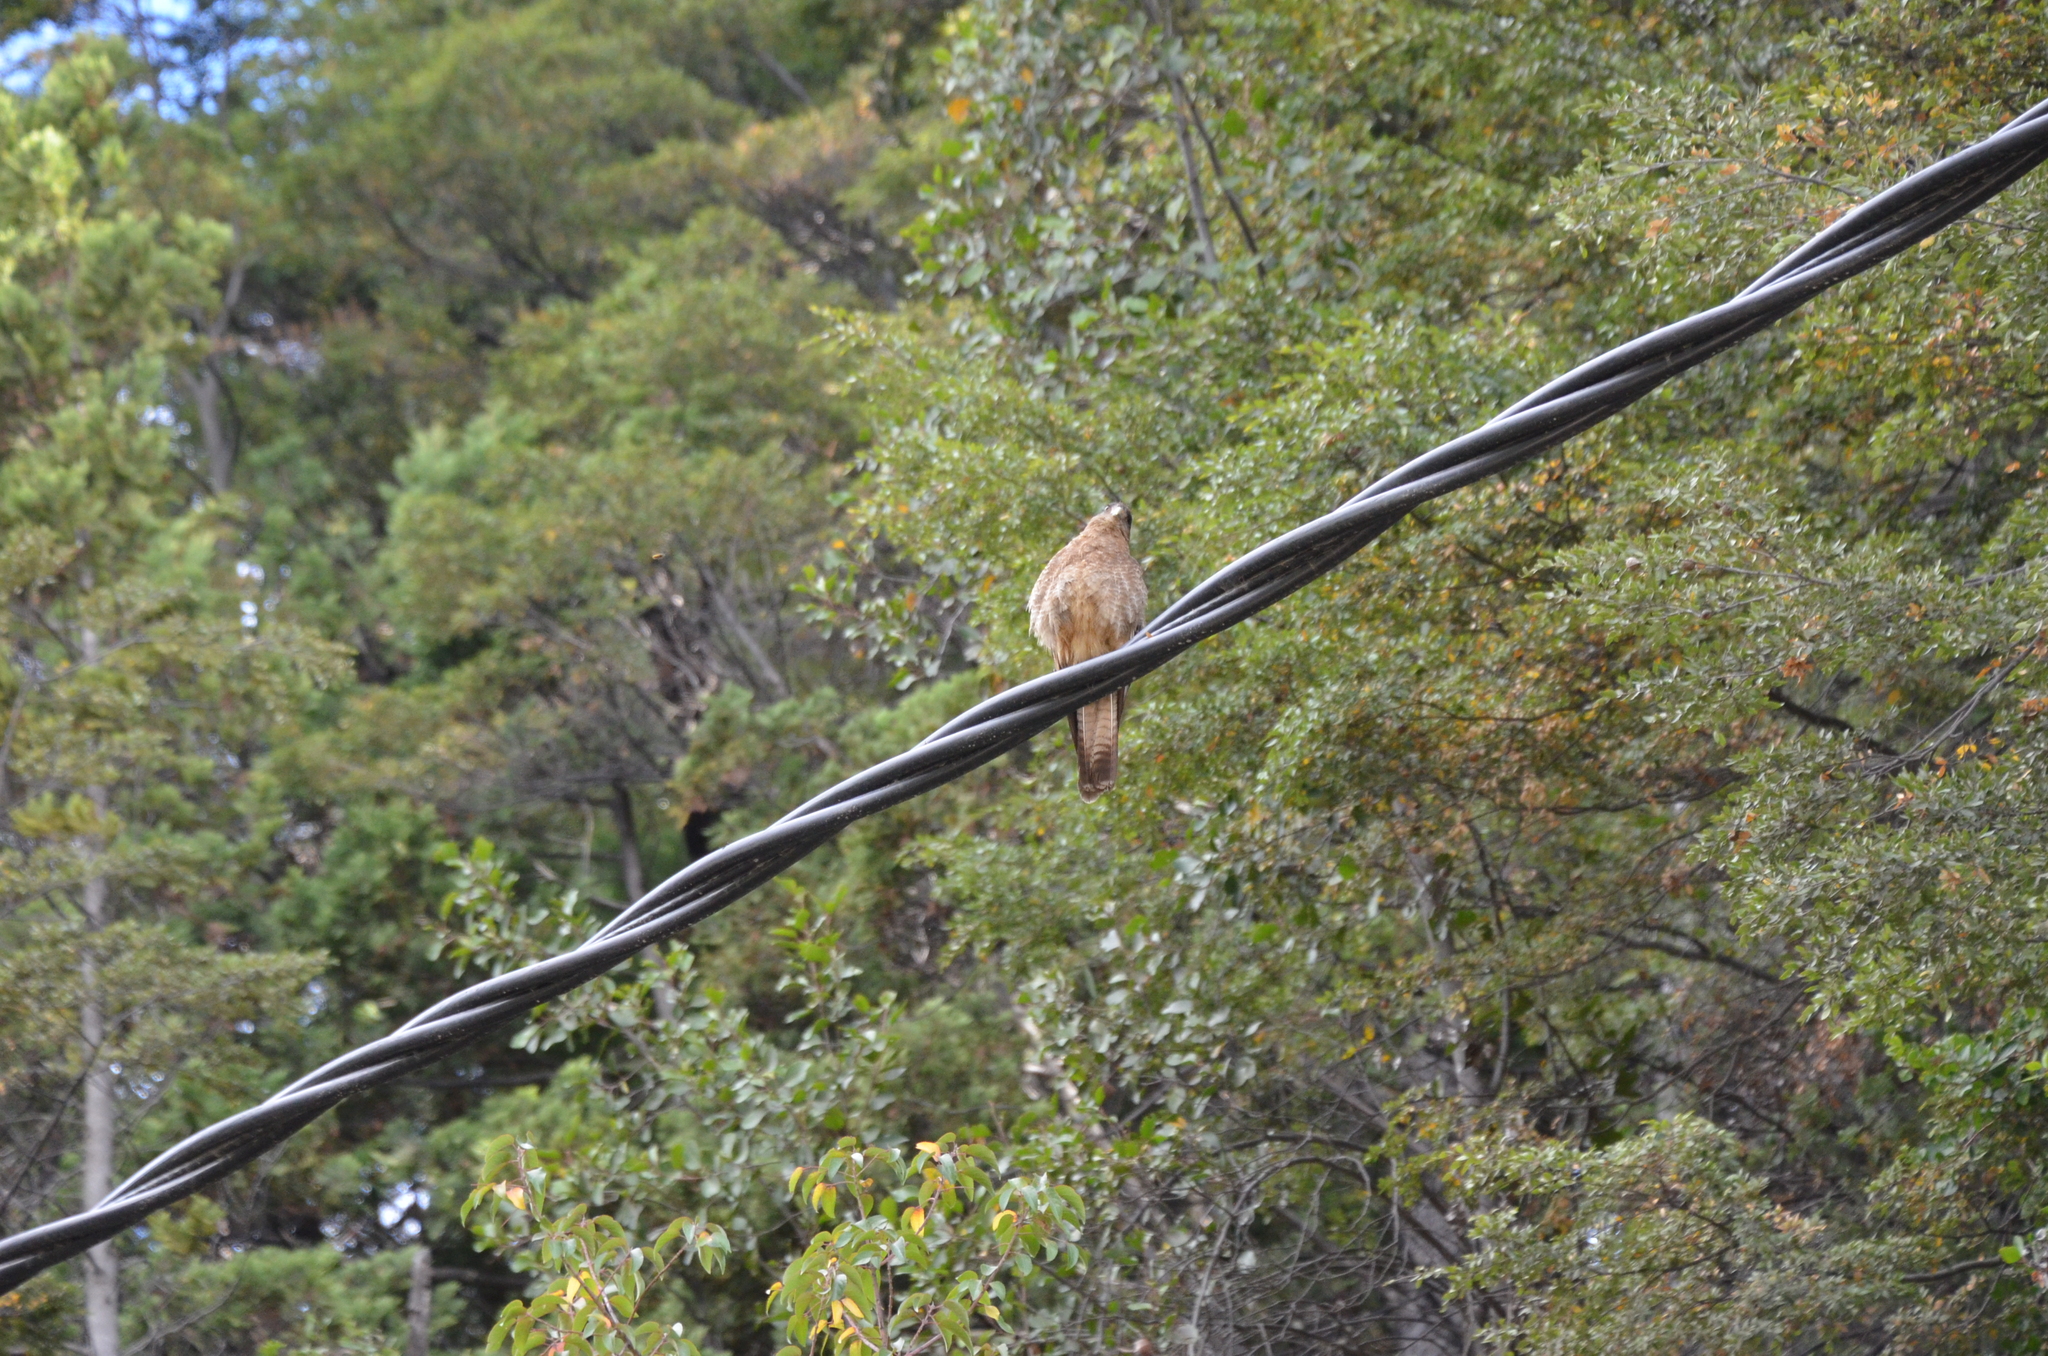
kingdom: Animalia
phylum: Chordata
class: Aves
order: Falconiformes
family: Falconidae
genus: Daptrius
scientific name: Daptrius
